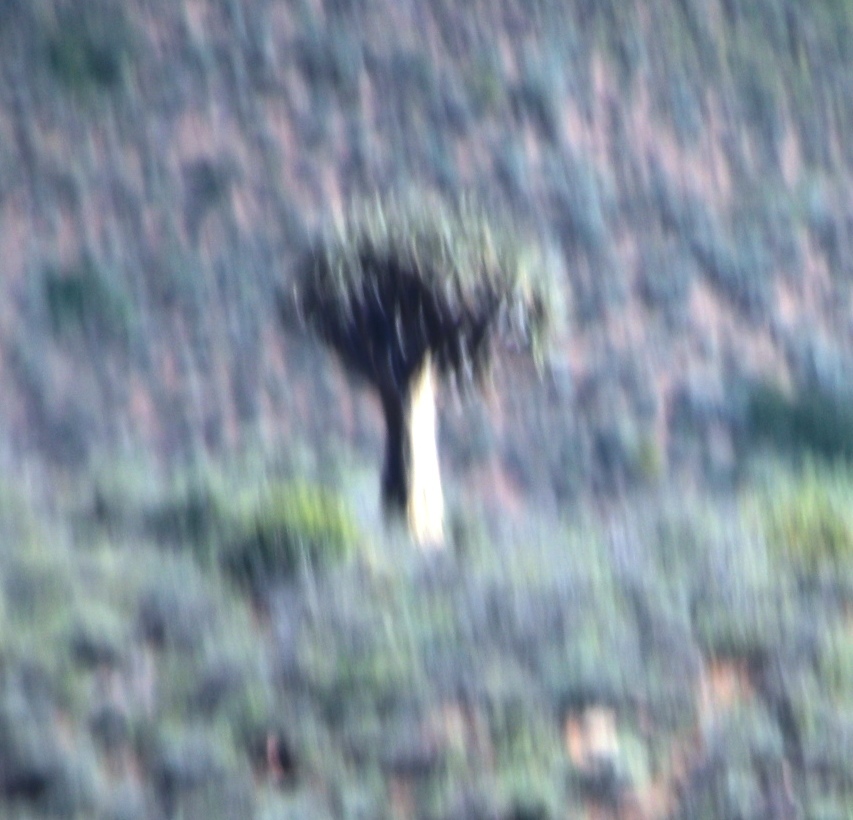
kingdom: Plantae
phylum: Tracheophyta
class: Liliopsida
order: Asparagales
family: Asphodelaceae
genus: Aloidendron
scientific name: Aloidendron dichotomum
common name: Quiver tree
